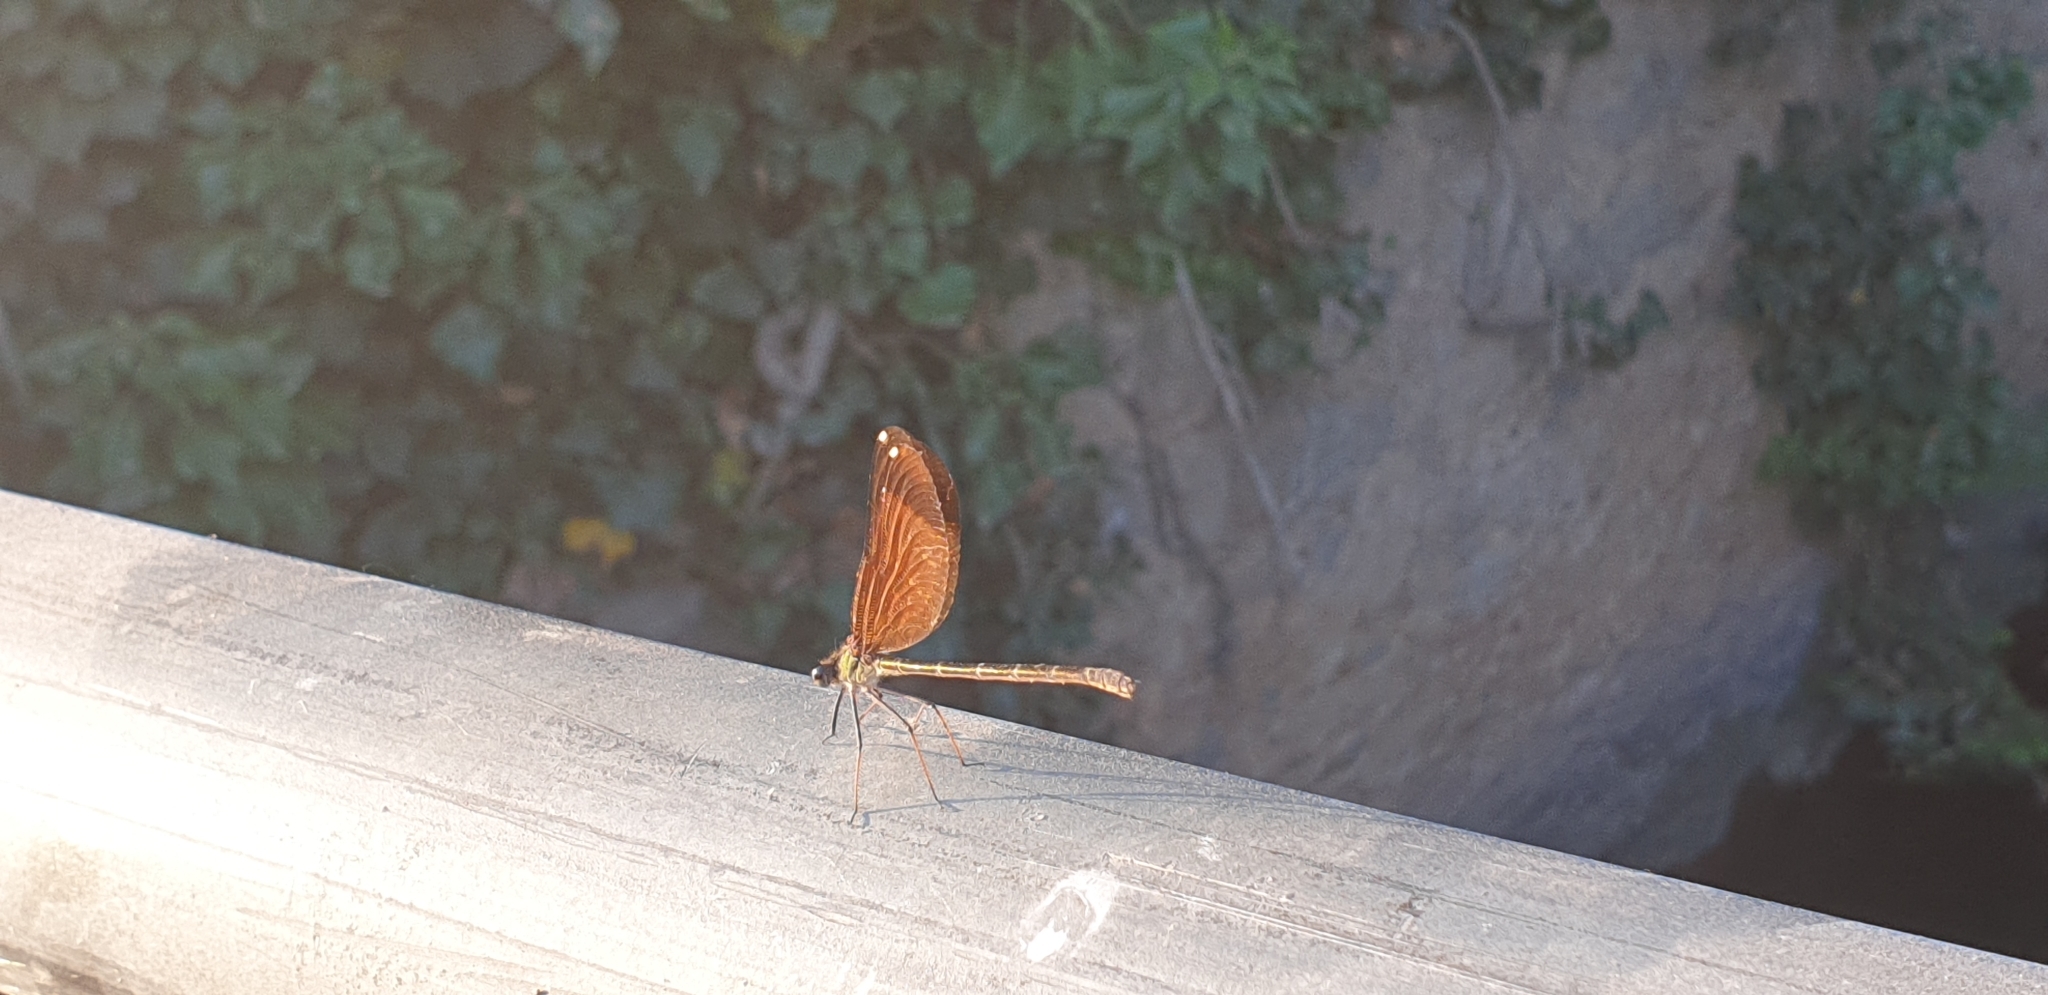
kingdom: Animalia
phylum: Arthropoda
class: Insecta
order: Odonata
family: Calopterygidae
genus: Calopteryx
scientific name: Calopteryx haemorrhoidalis
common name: Copper demoiselle
